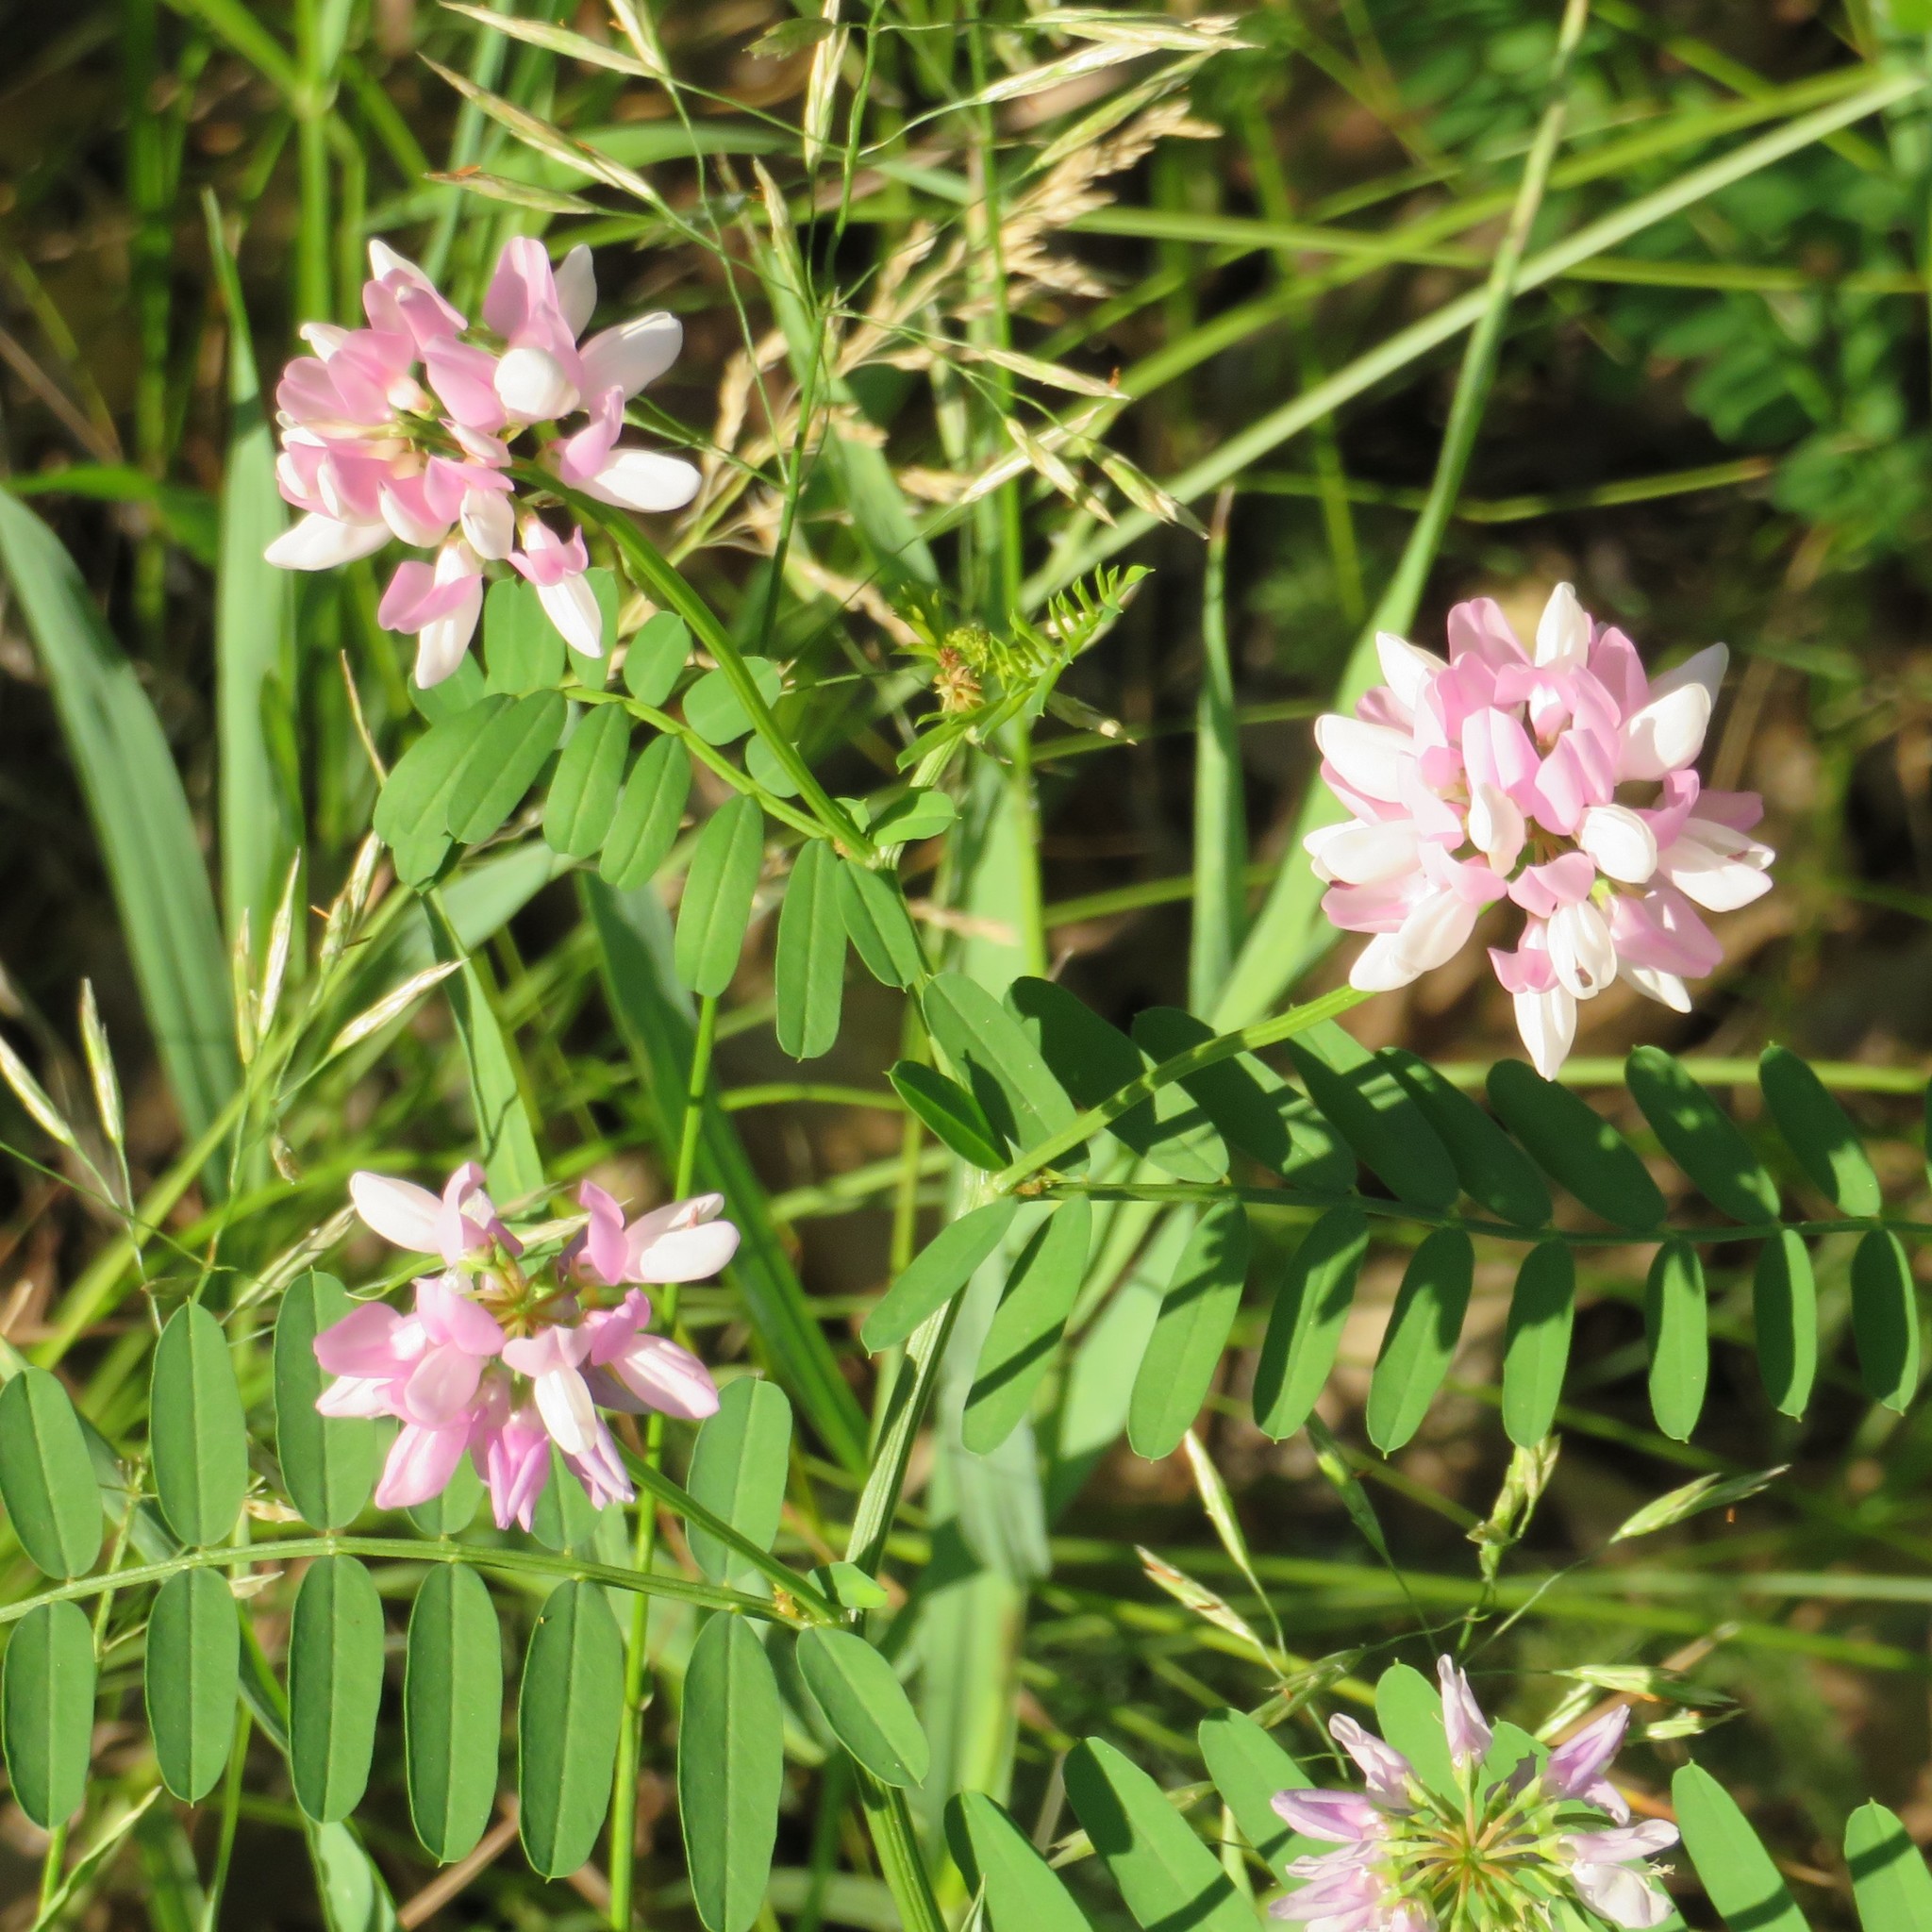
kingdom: Plantae
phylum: Tracheophyta
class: Magnoliopsida
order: Fabales
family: Fabaceae
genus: Coronilla
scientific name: Coronilla varia
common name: Crownvetch
